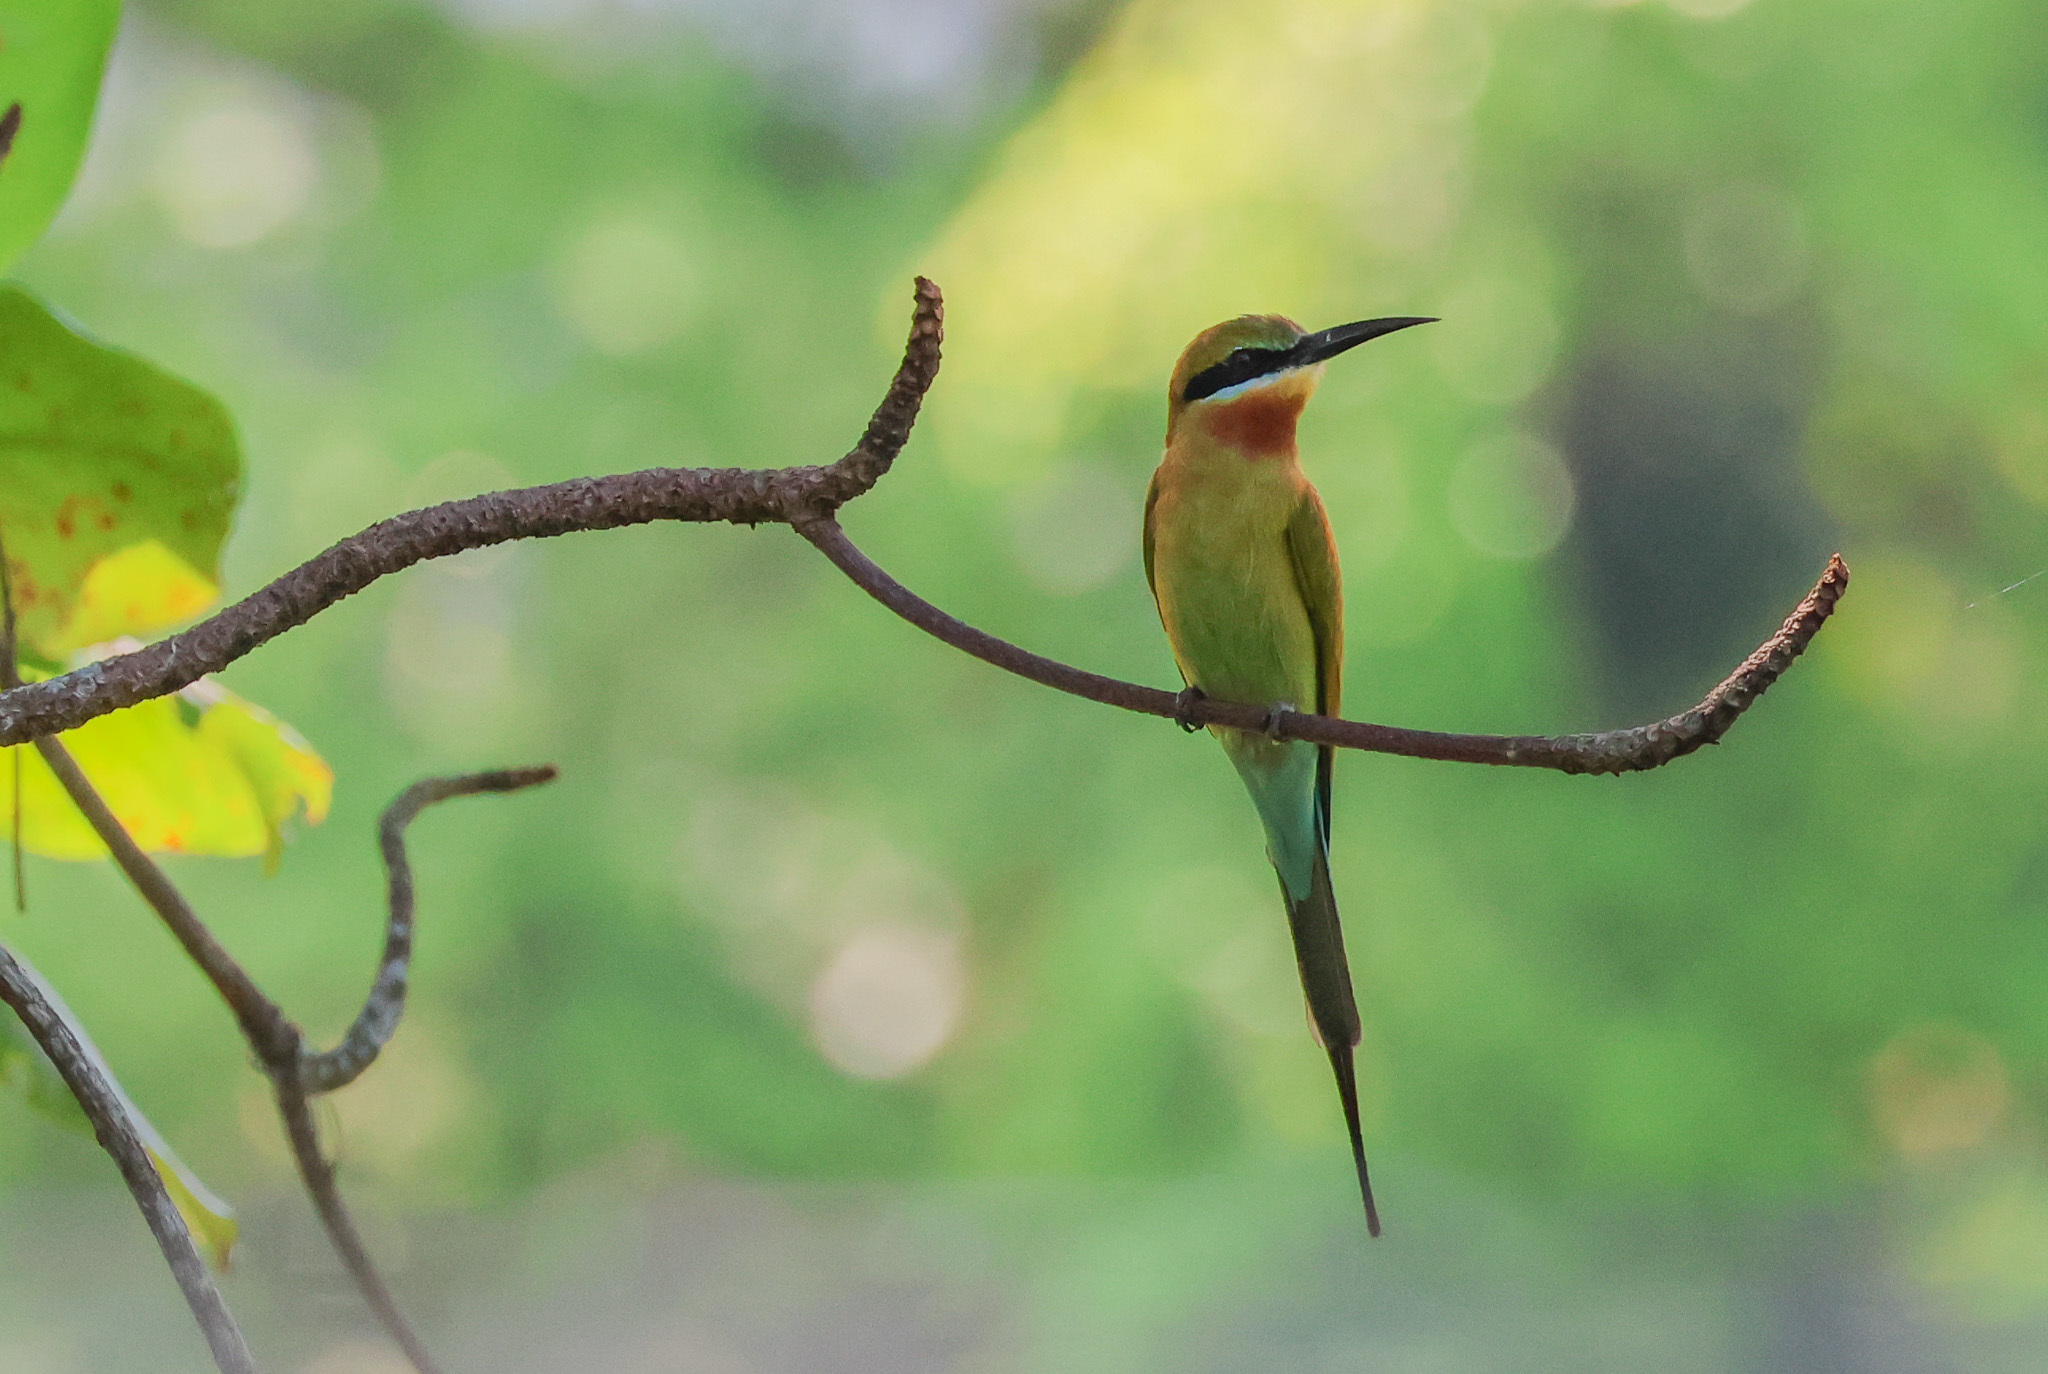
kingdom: Animalia
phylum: Chordata
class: Aves
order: Coraciiformes
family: Meropidae
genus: Merops
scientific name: Merops philippinus
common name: Blue-tailed bee-eater
